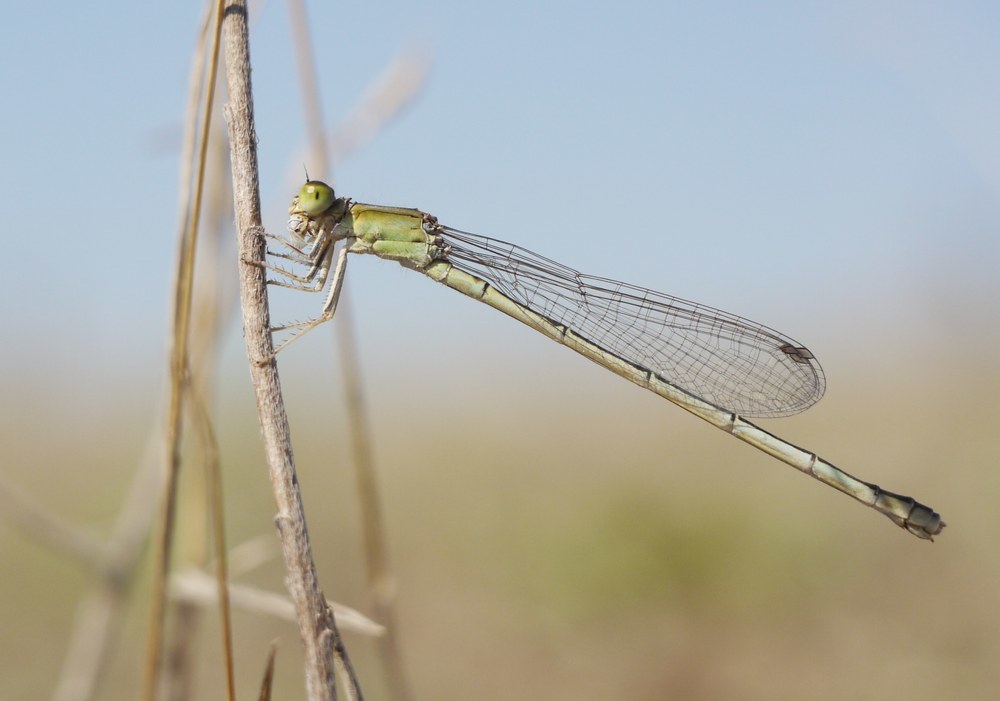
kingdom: Animalia
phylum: Arthropoda
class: Insecta
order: Odonata
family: Coenagrionidae
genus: Ischnura
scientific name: Ischnura pumilio
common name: Scarce blue-tailed damselfly
